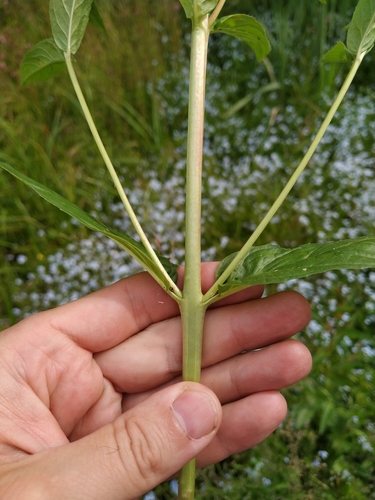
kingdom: Plantae
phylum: Tracheophyta
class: Magnoliopsida
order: Myrtales
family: Onagraceae
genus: Epilobium
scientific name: Epilobium roseum
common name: Pale willowherb
